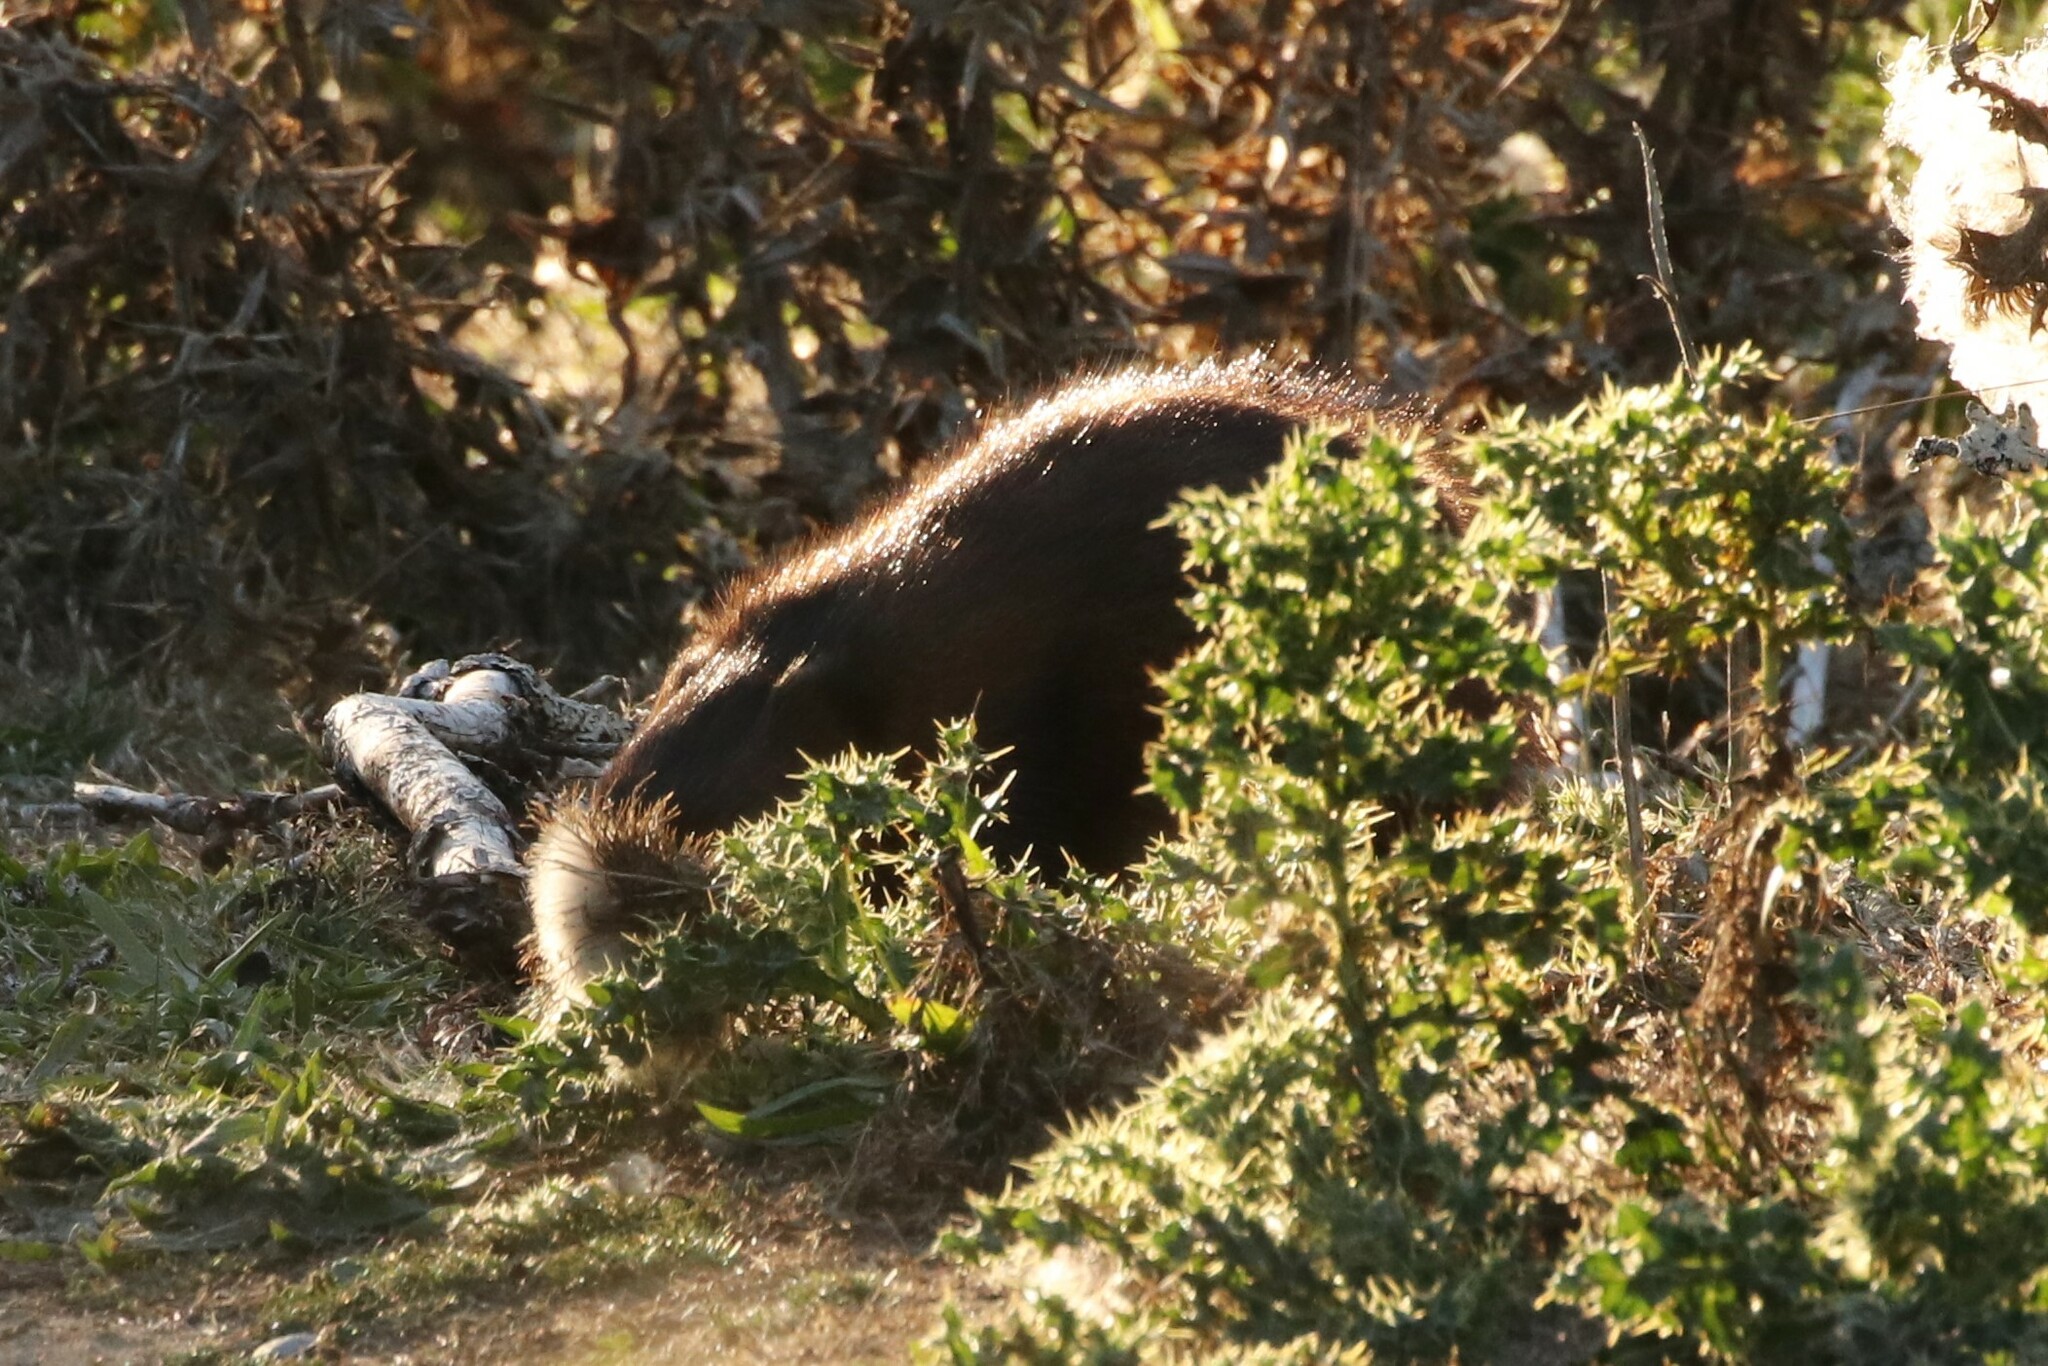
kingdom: Animalia
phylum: Chordata
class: Mammalia
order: Rodentia
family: Cricetidae
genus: Ondatra
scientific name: Ondatra zibethicus
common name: Muskrat
